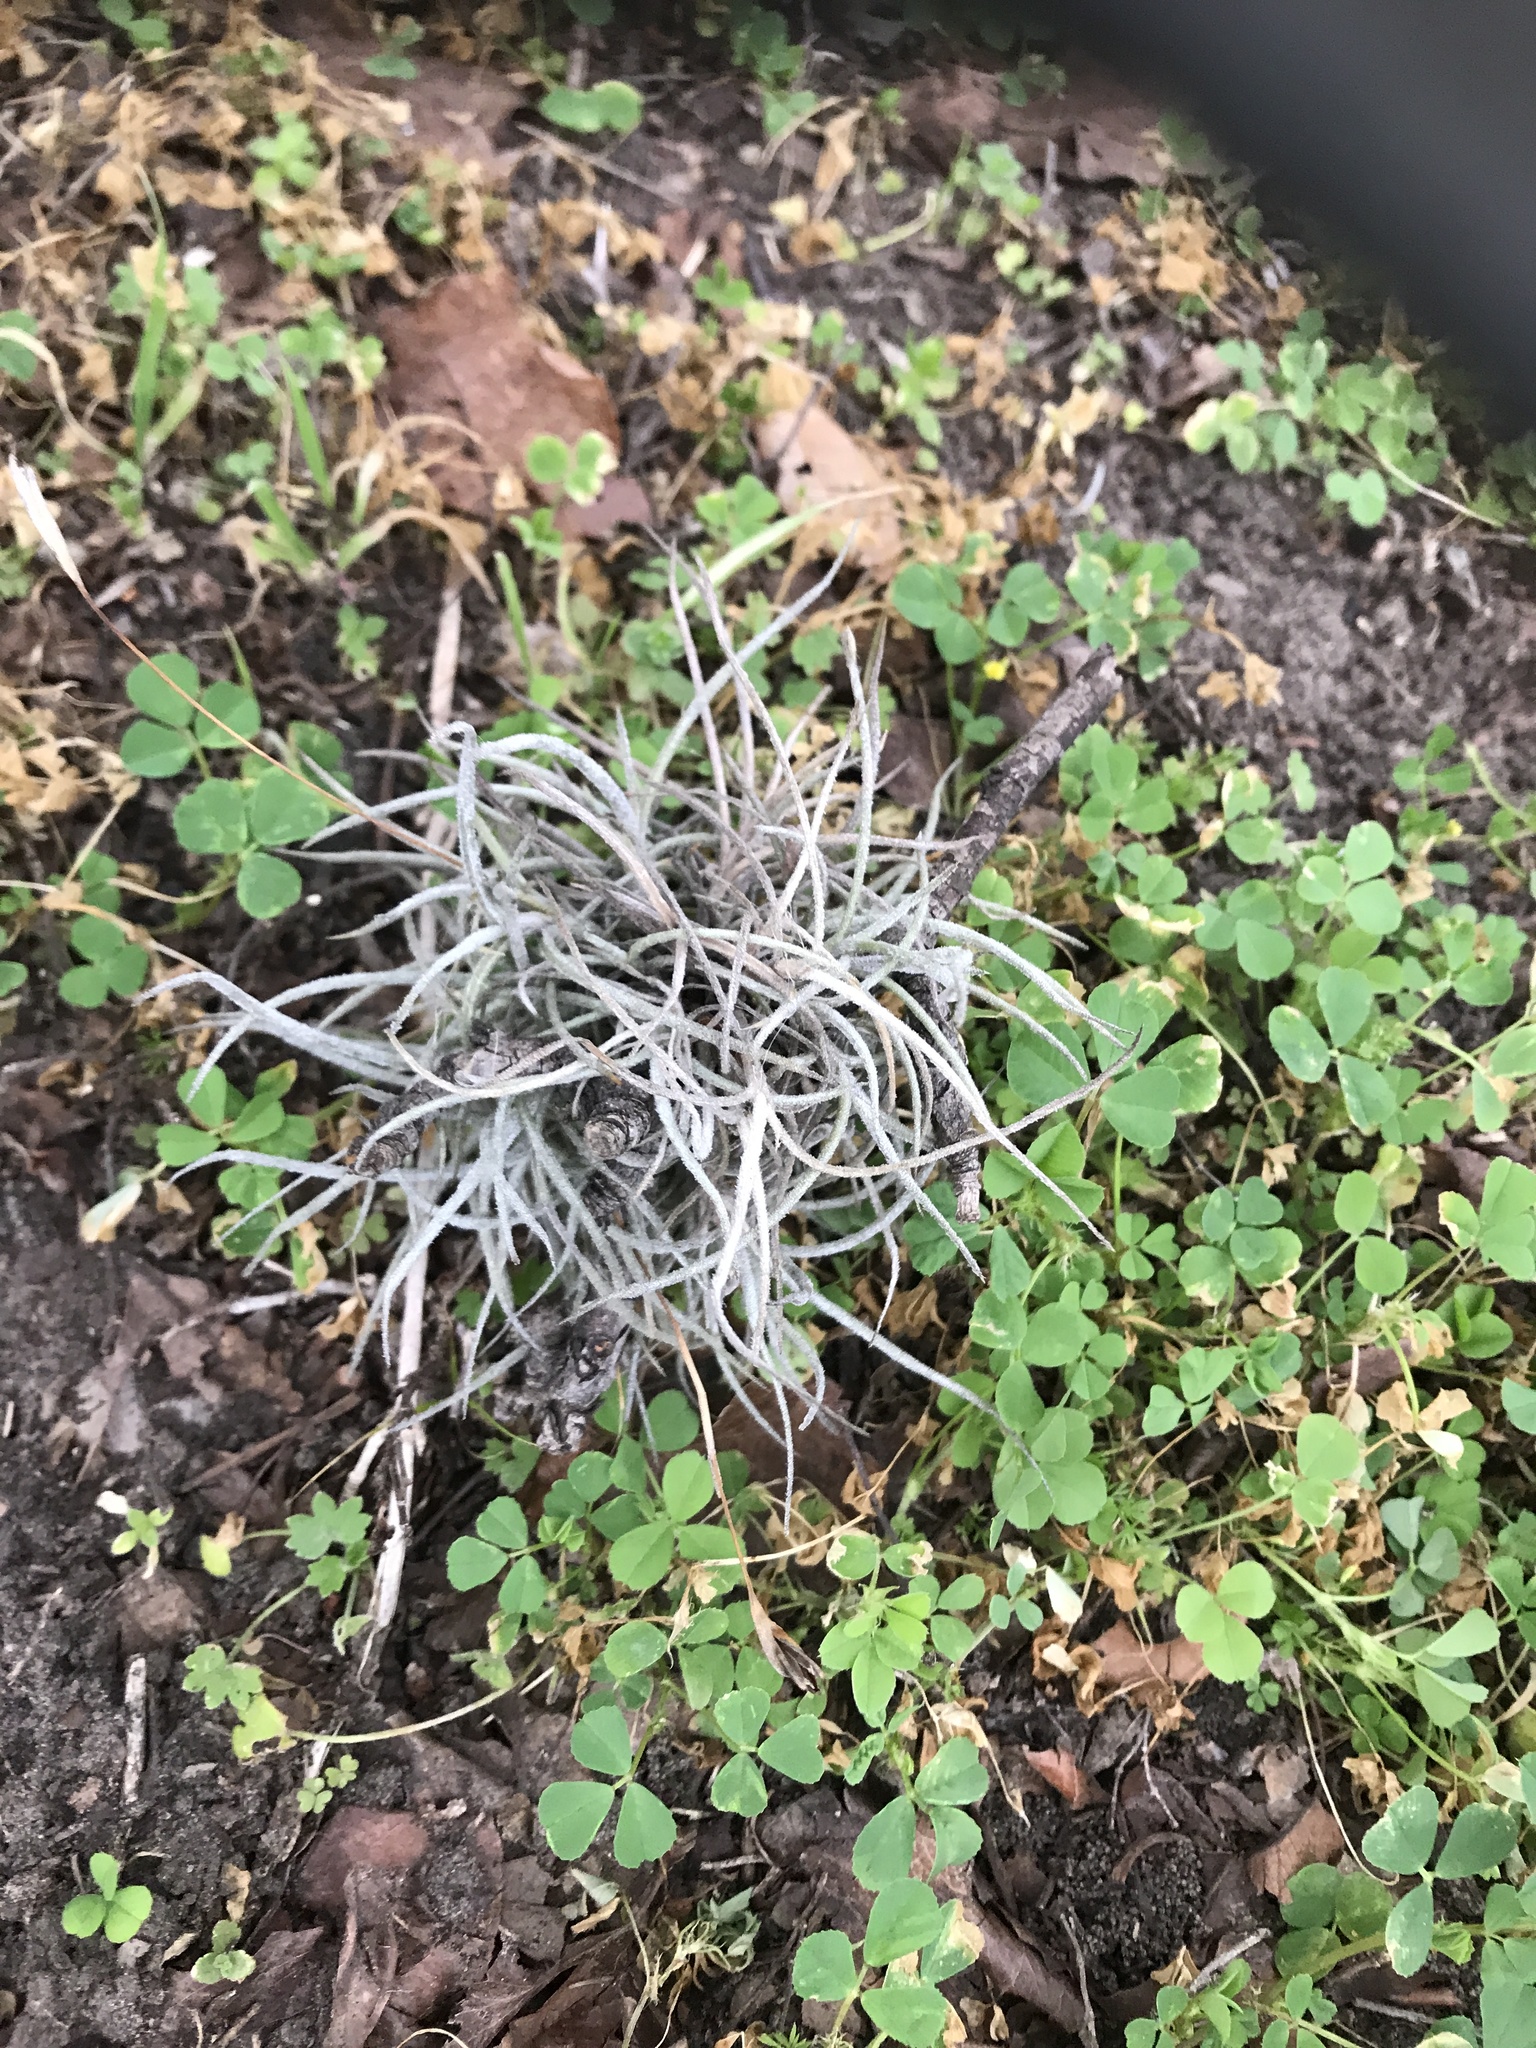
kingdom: Plantae
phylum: Tracheophyta
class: Liliopsida
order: Poales
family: Bromeliaceae
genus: Tillandsia
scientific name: Tillandsia recurvata
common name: Small ballmoss
